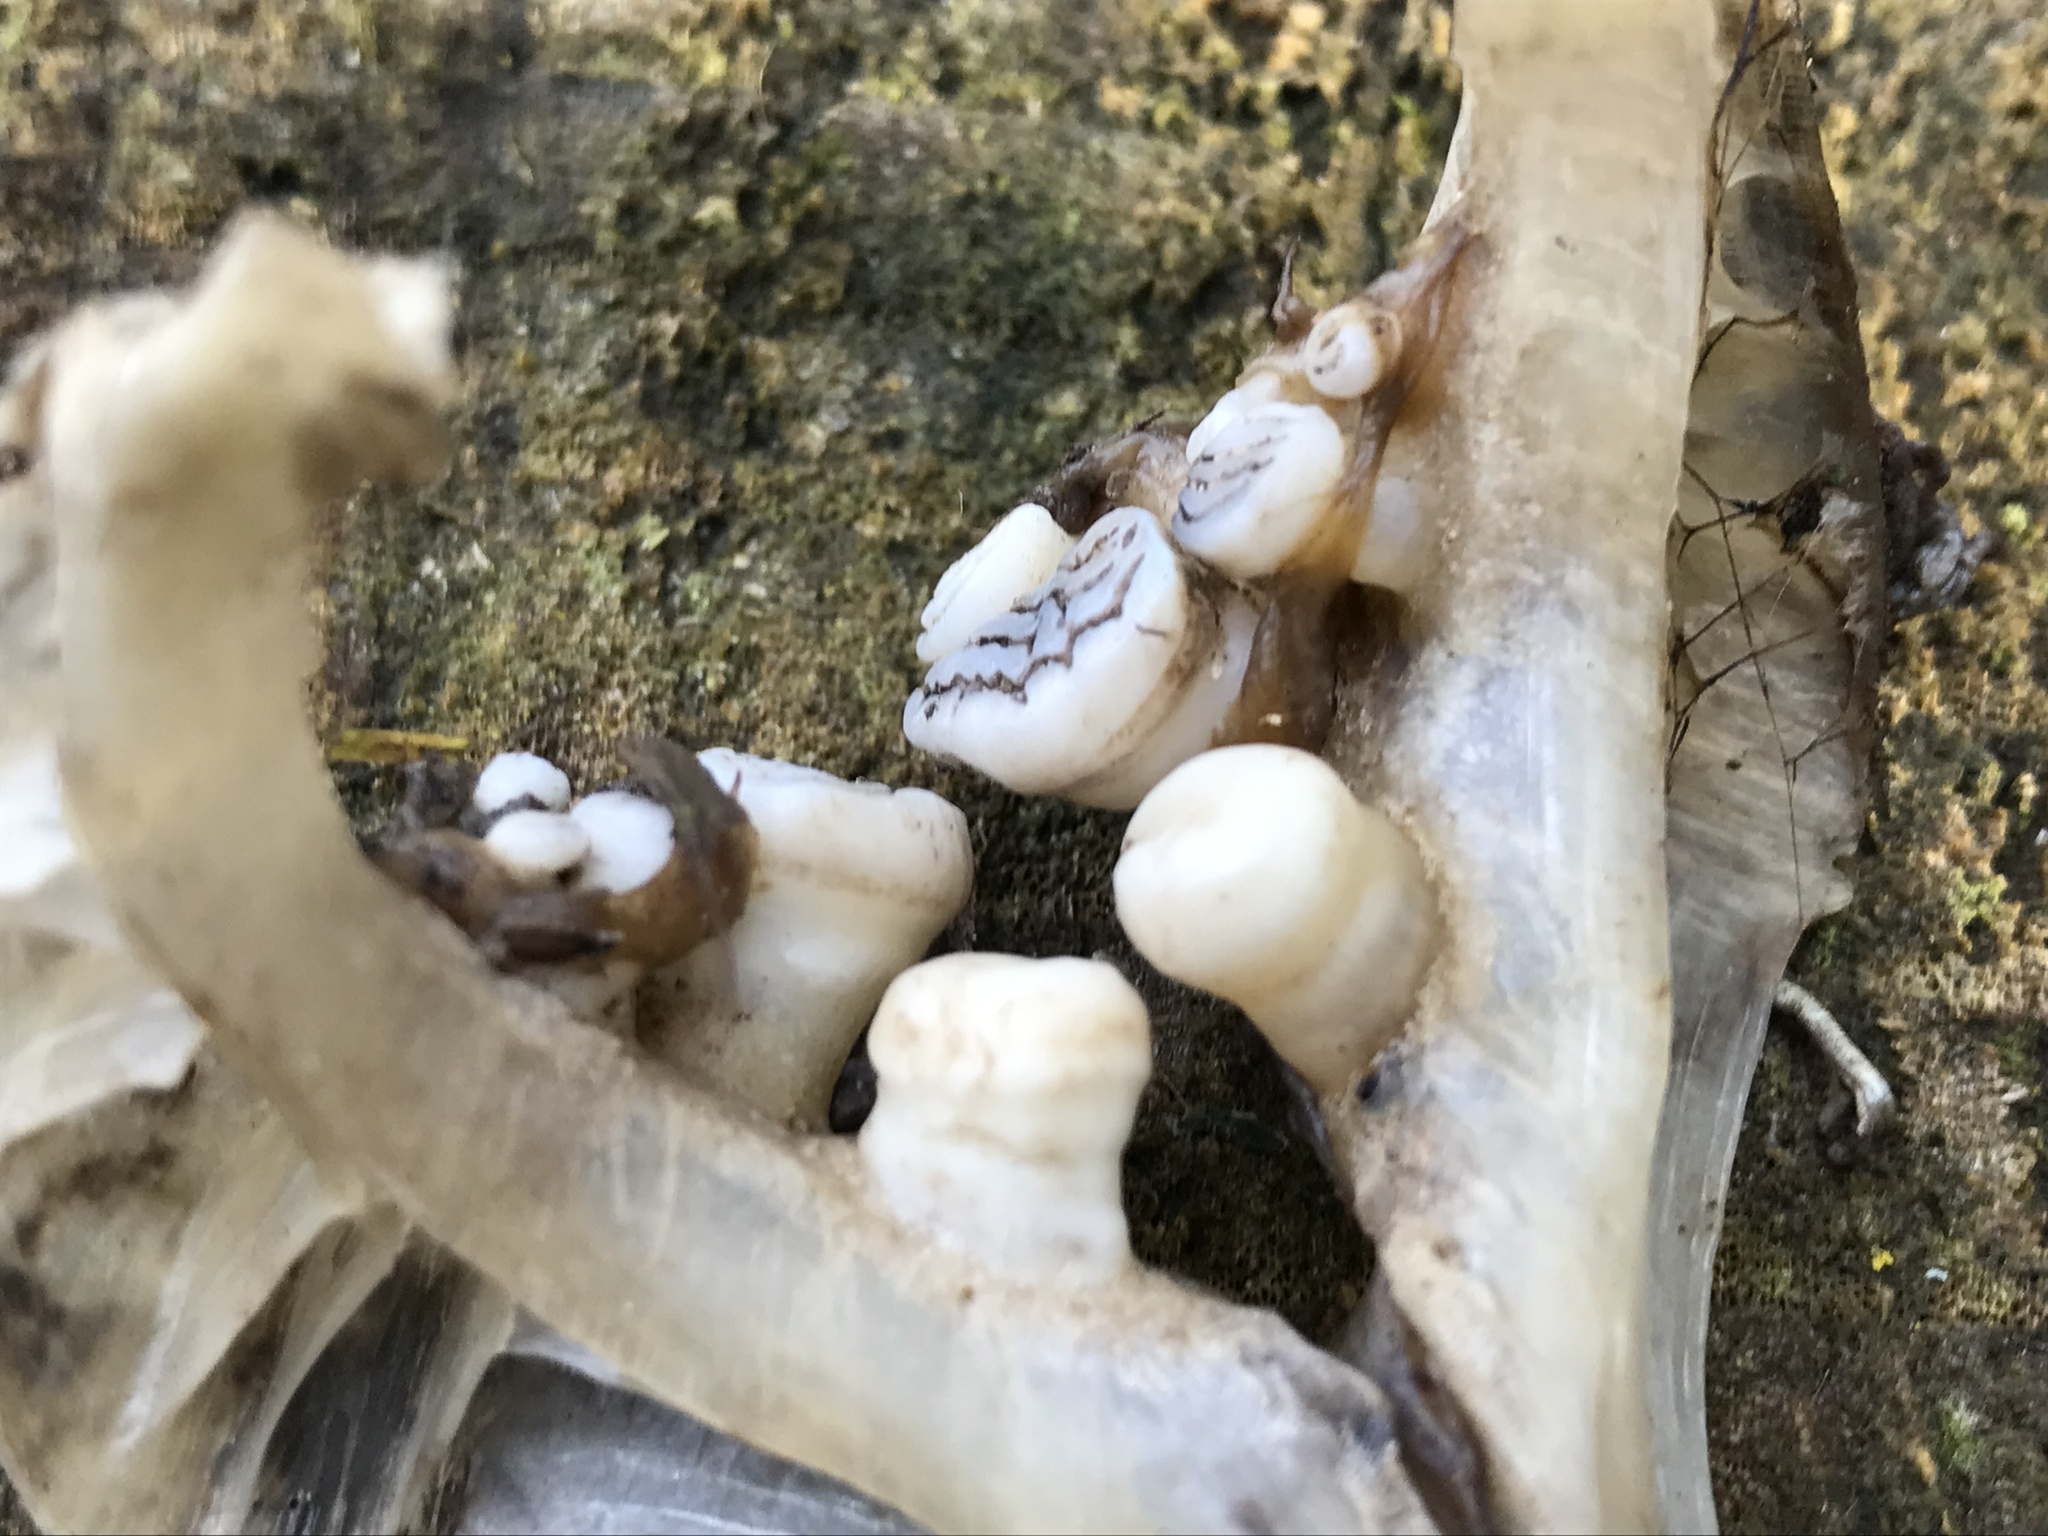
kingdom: Animalia
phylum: Chordata
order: Cypriniformes
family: Cyprinidae
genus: Cyprinus
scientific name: Cyprinus carpio
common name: Common carp
